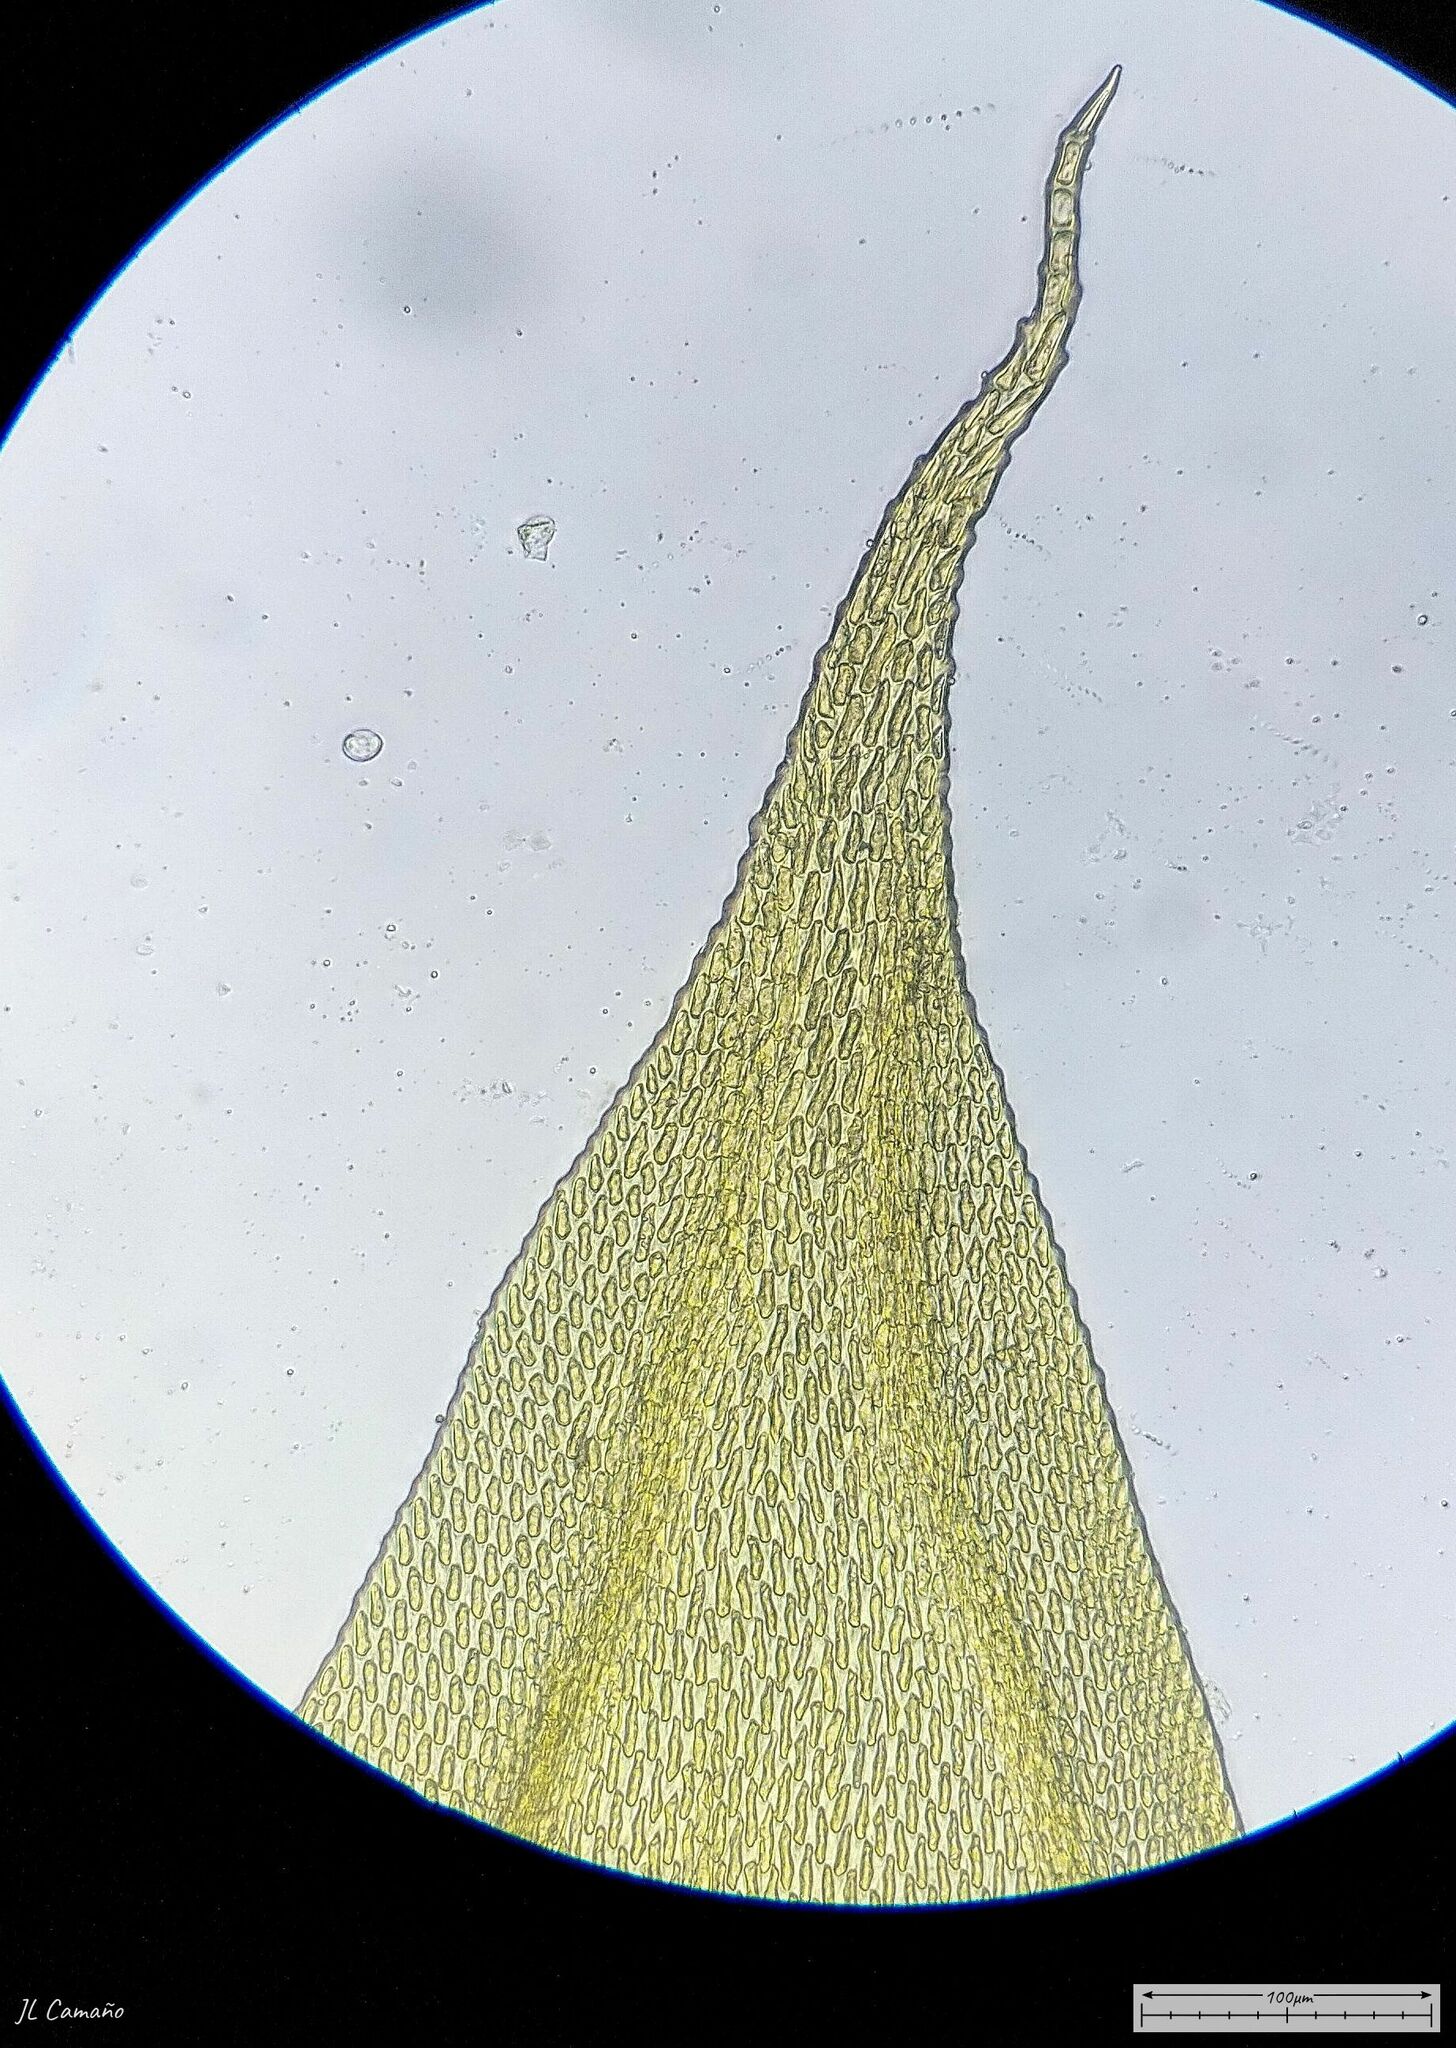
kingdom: Plantae
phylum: Bryophyta
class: Bryopsida
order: Hypnales
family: Leucodontaceae
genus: Leucodon
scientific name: Leucodon sciuroides
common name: Squirrel-tail moss
